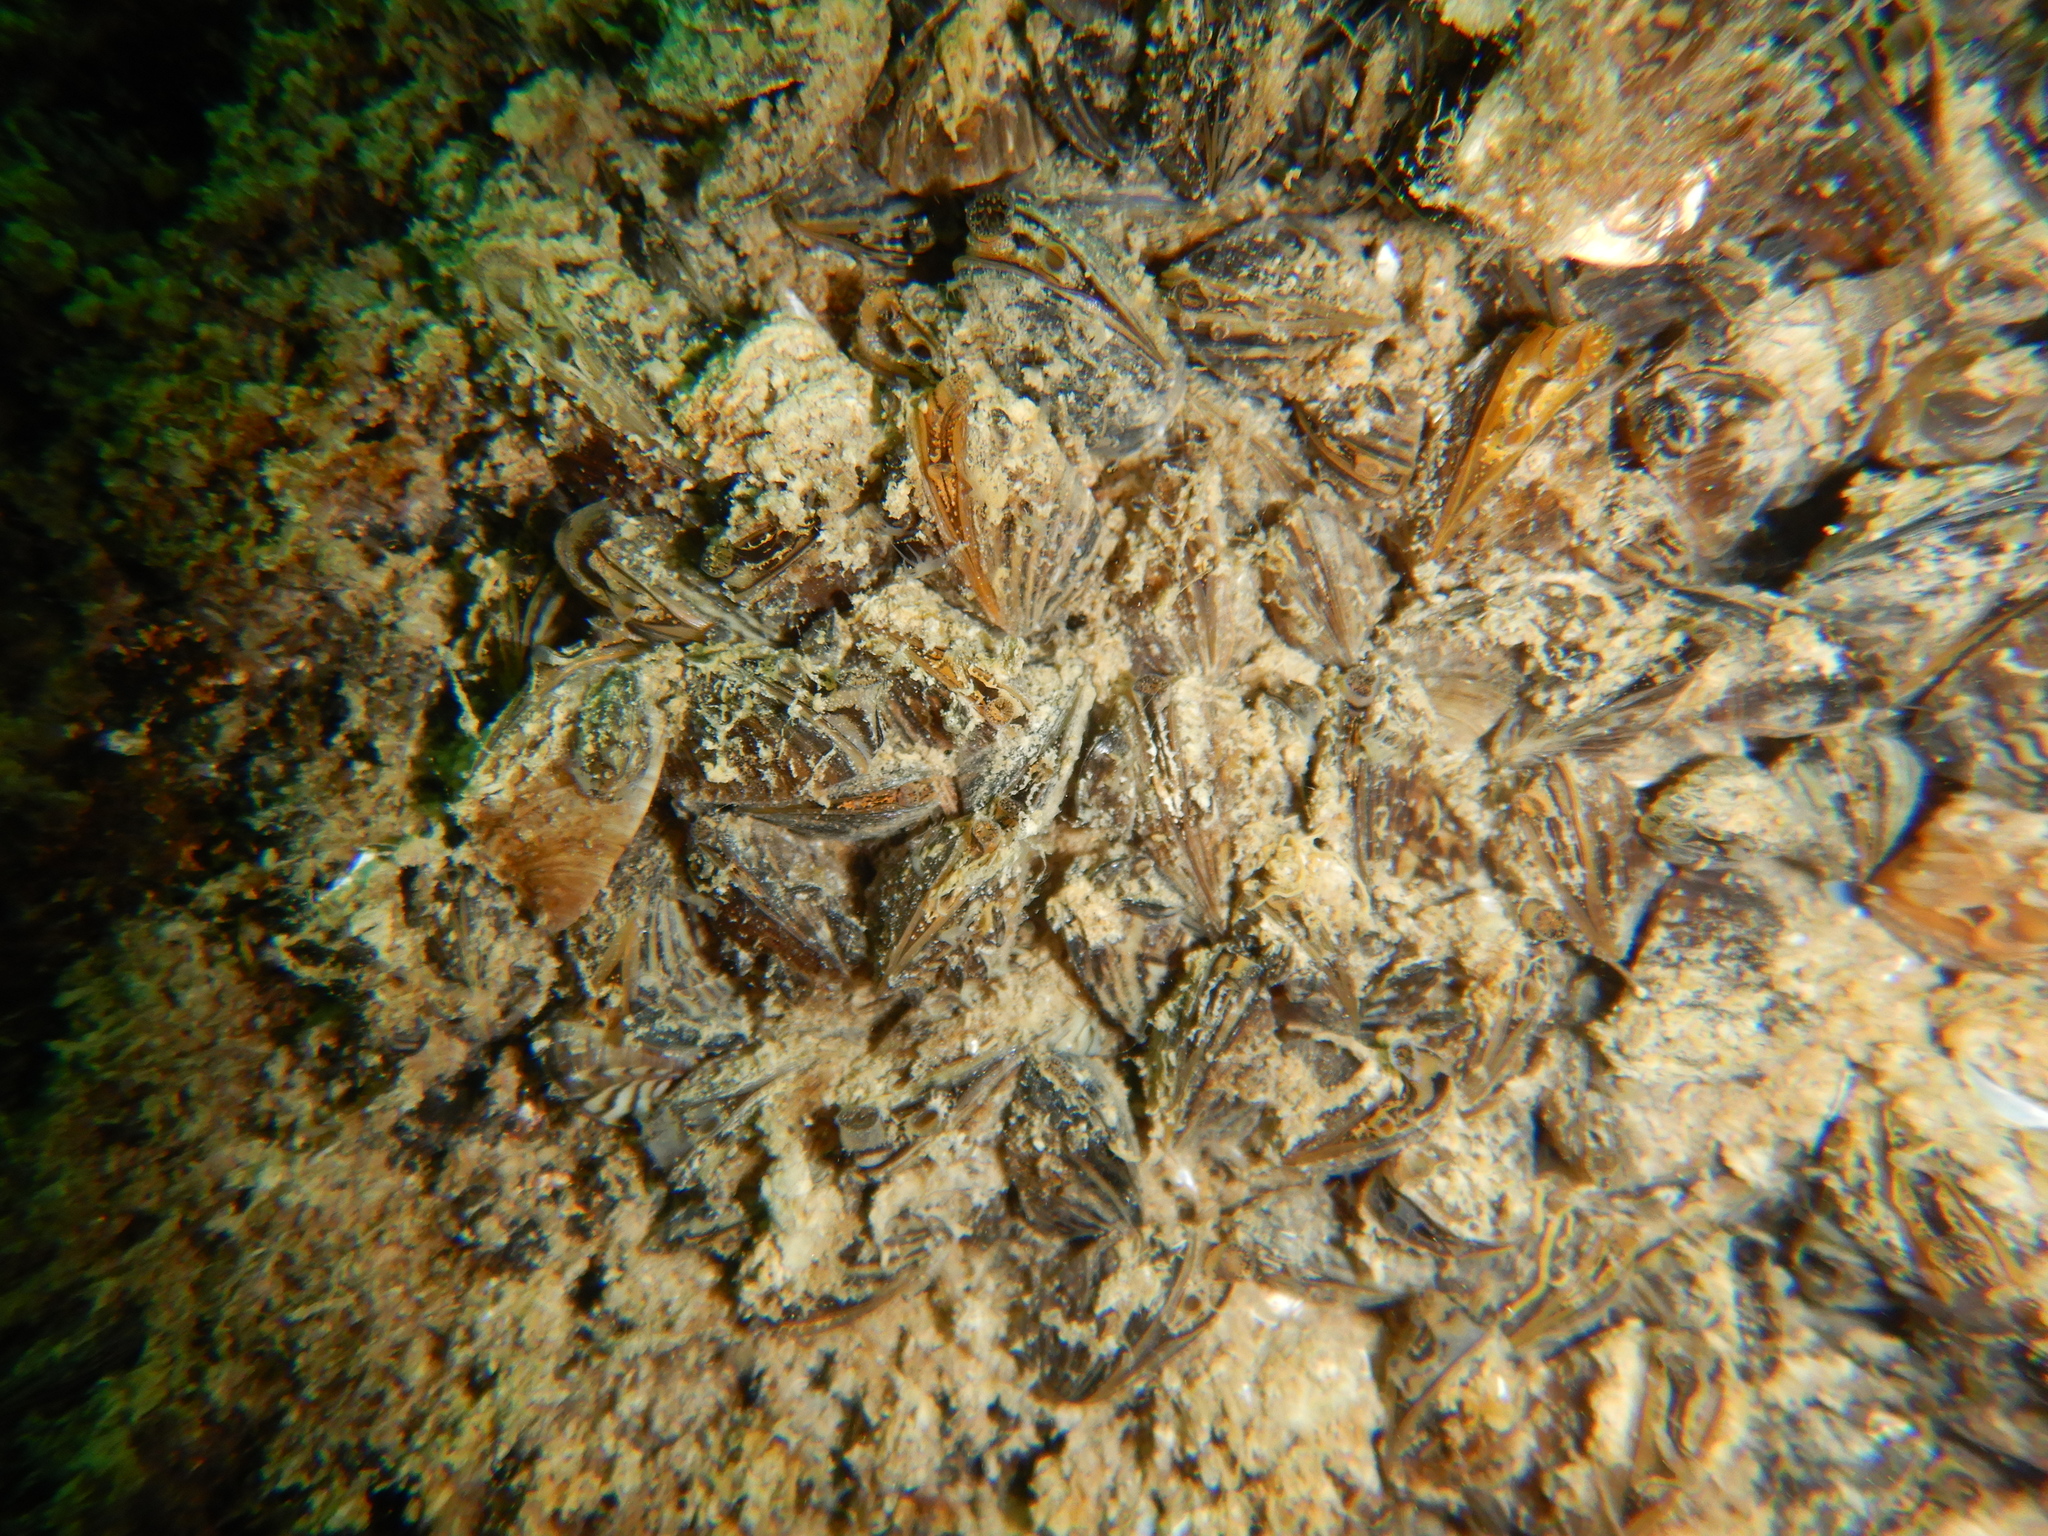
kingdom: Animalia
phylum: Mollusca
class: Bivalvia
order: Myida
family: Dreissenidae
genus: Dreissena
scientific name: Dreissena polymorpha
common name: Zebra mussel
